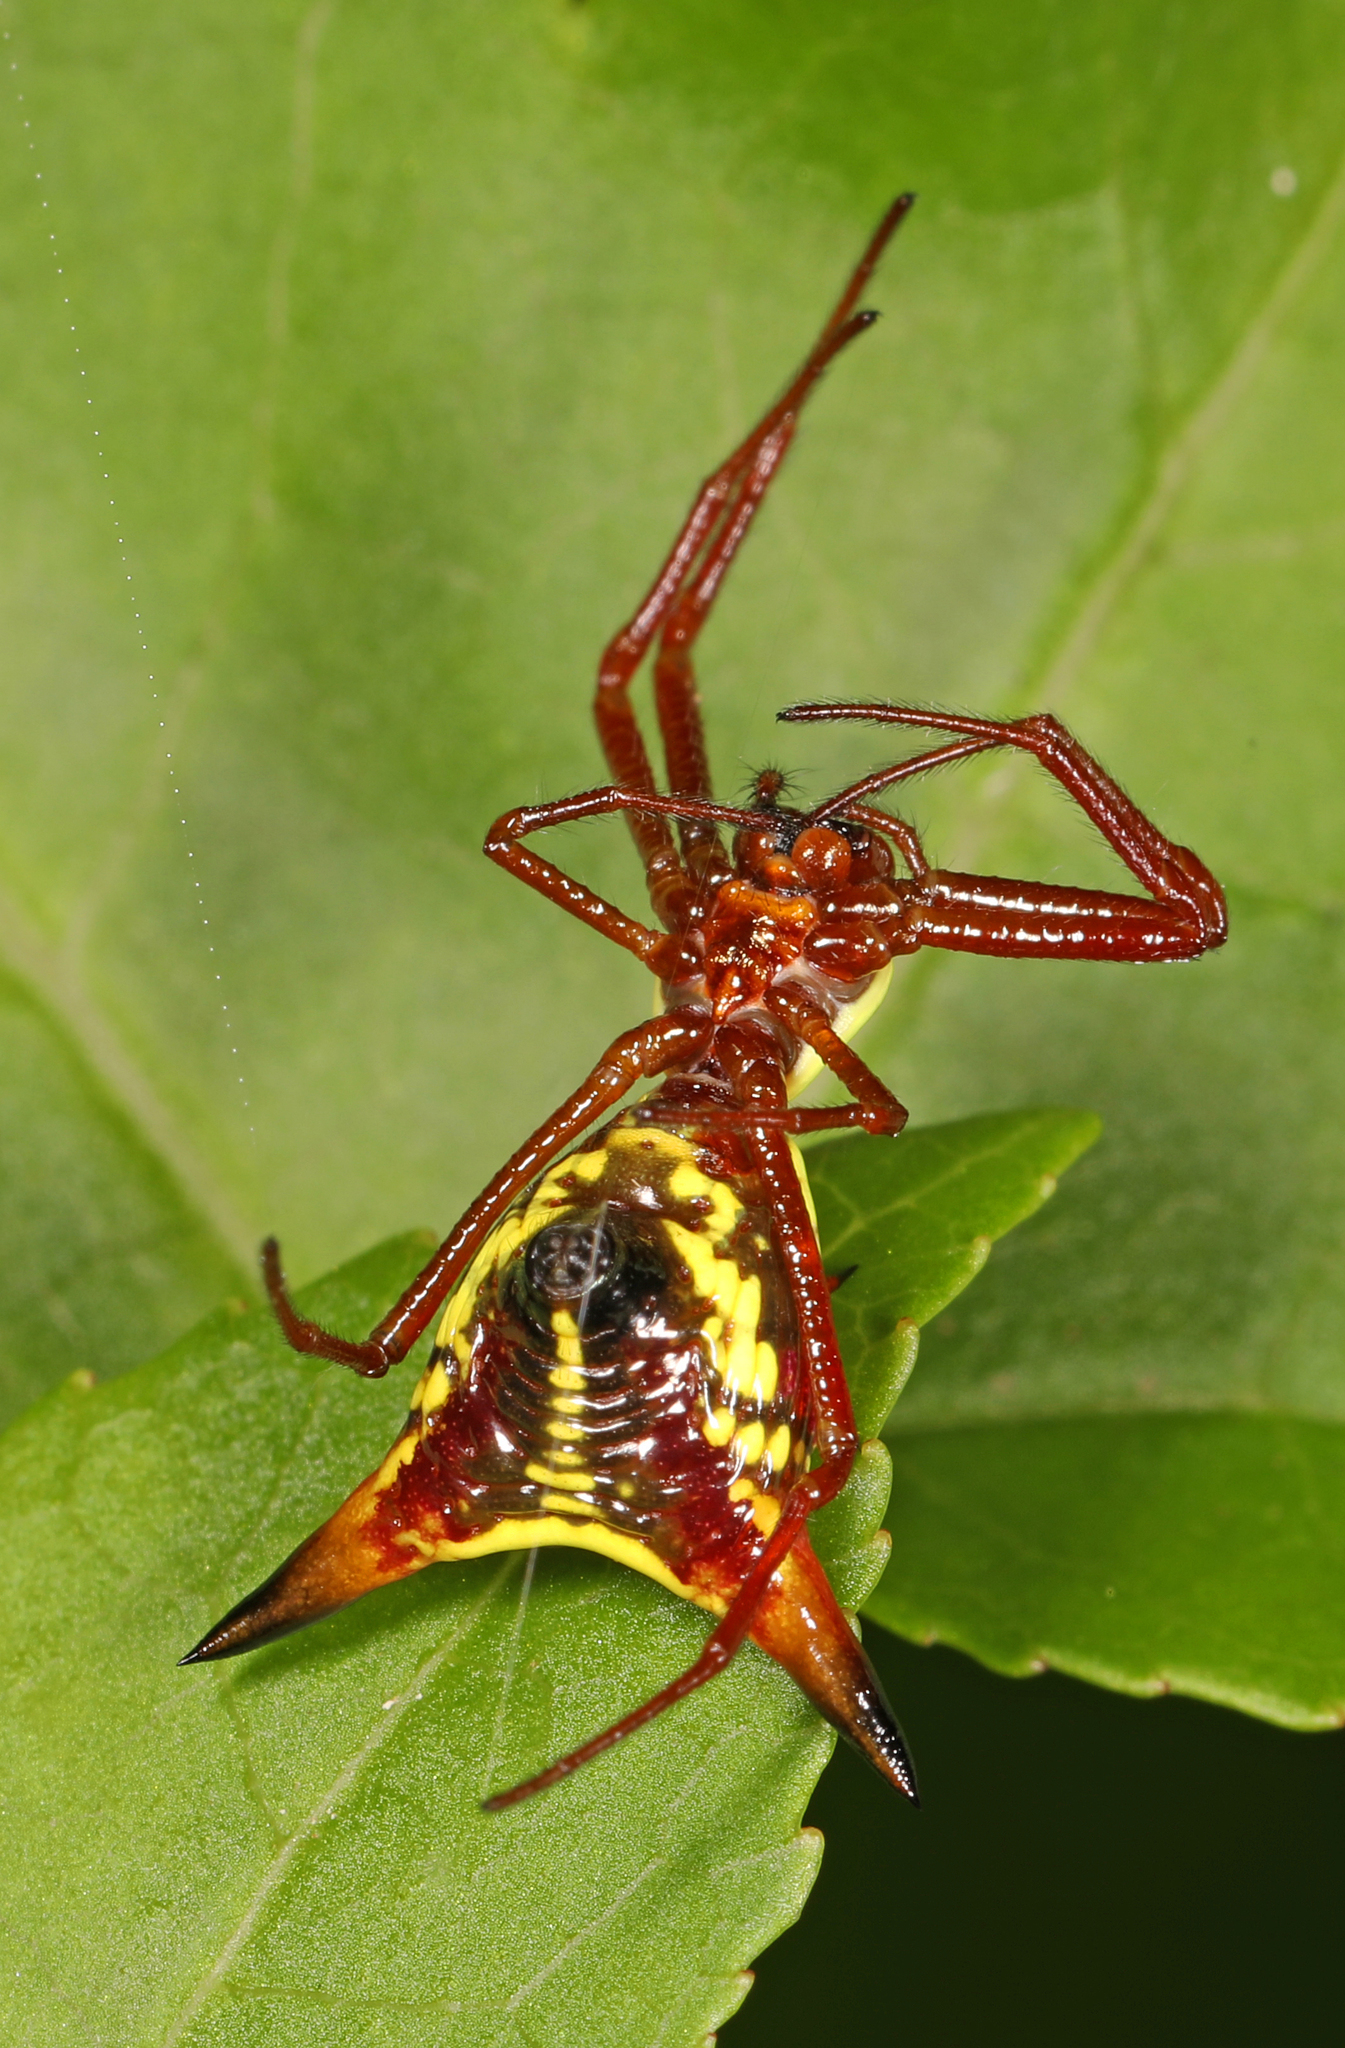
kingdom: Animalia
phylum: Arthropoda
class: Arachnida
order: Araneae
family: Araneidae
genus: Micrathena
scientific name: Micrathena sagittata
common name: Orb weavers
